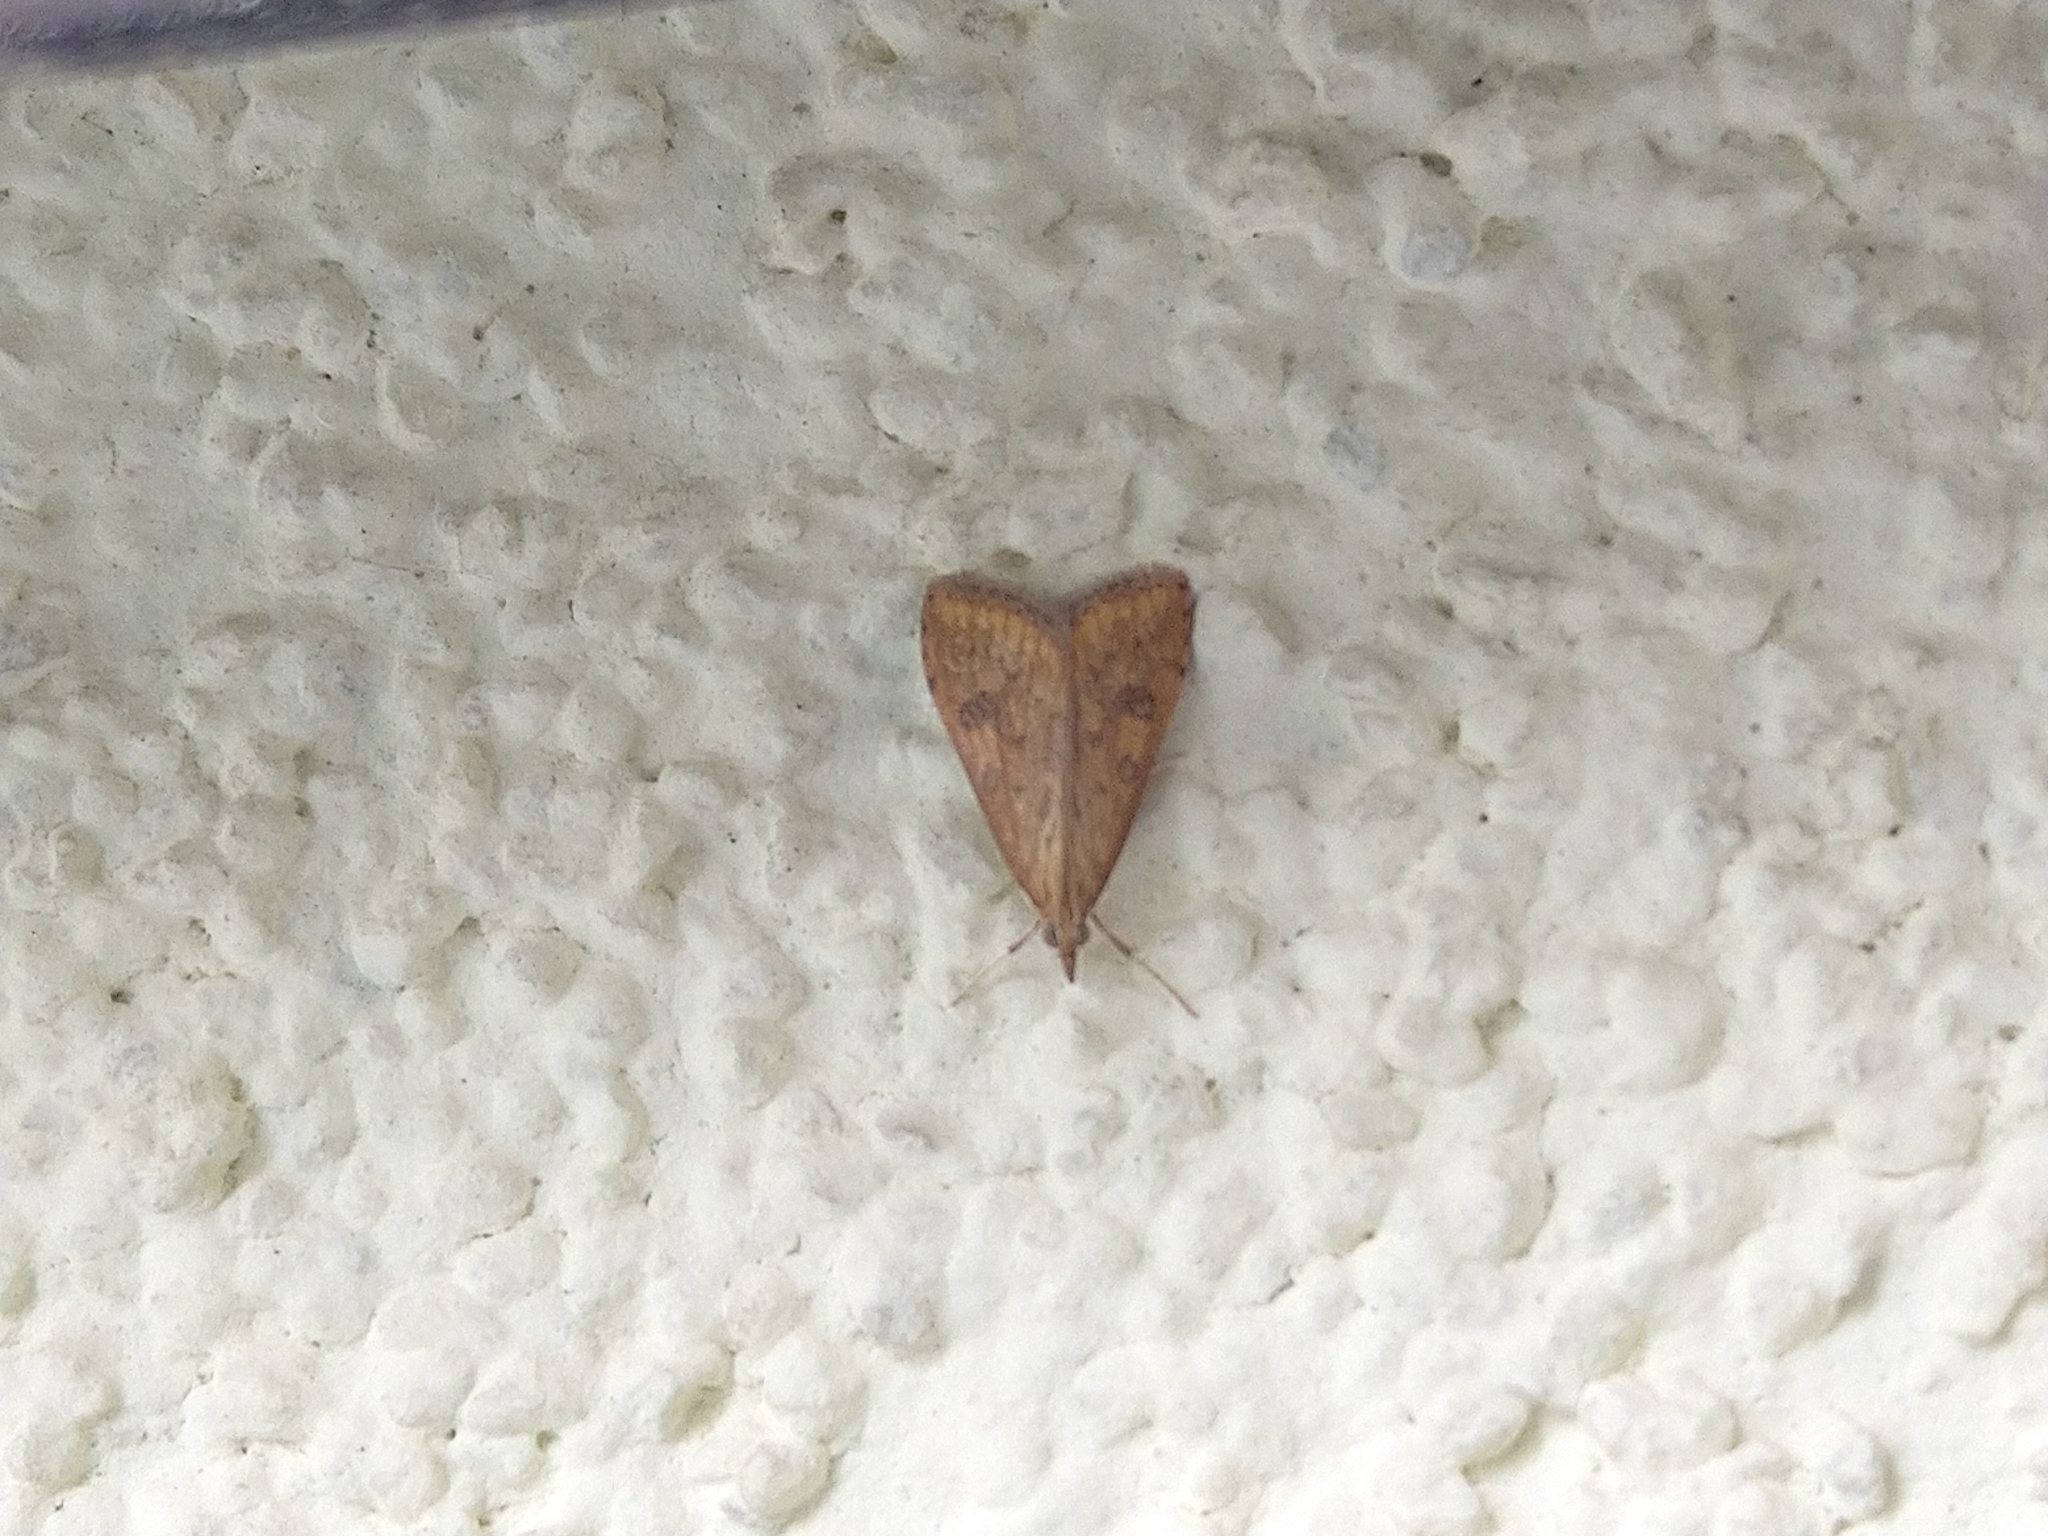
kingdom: Animalia
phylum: Arthropoda
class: Insecta
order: Lepidoptera
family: Crambidae
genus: Udea
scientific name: Udea ferrugalis
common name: Rusty dot
